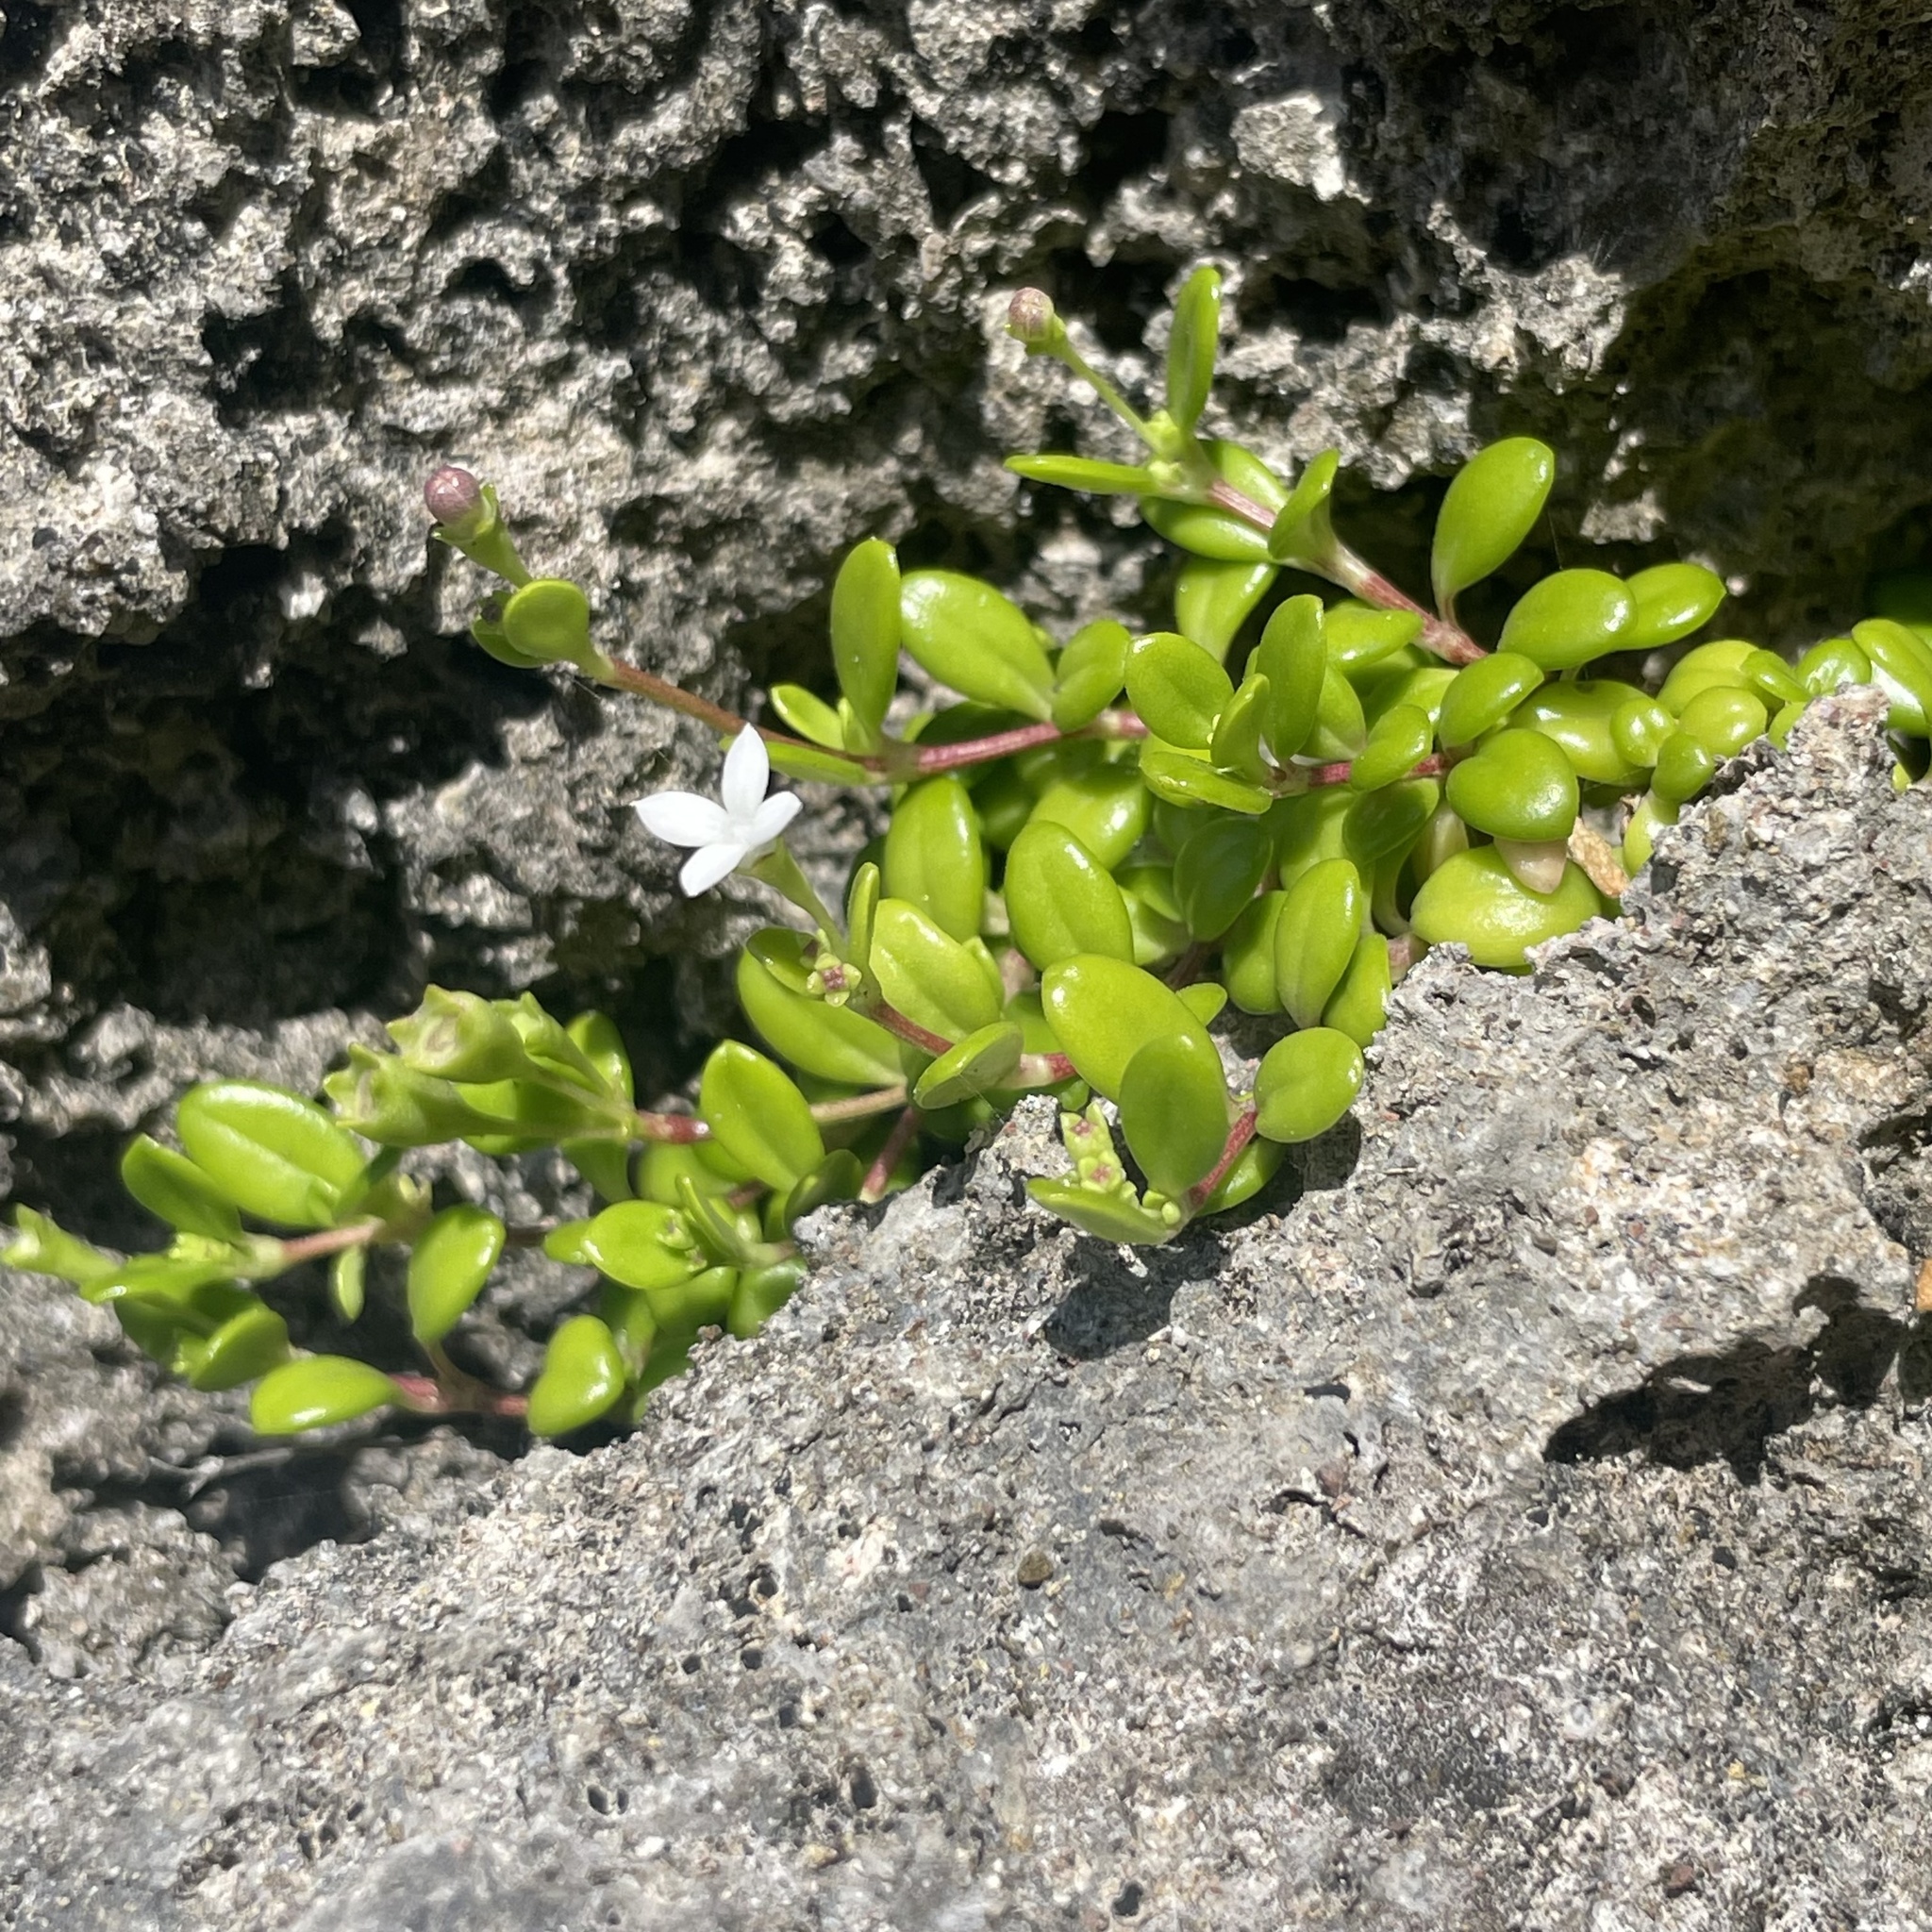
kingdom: Plantae
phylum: Tracheophyta
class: Magnoliopsida
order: Gentianales
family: Rubiaceae
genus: Leptopetalum
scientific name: Leptopetalum strigulosum
